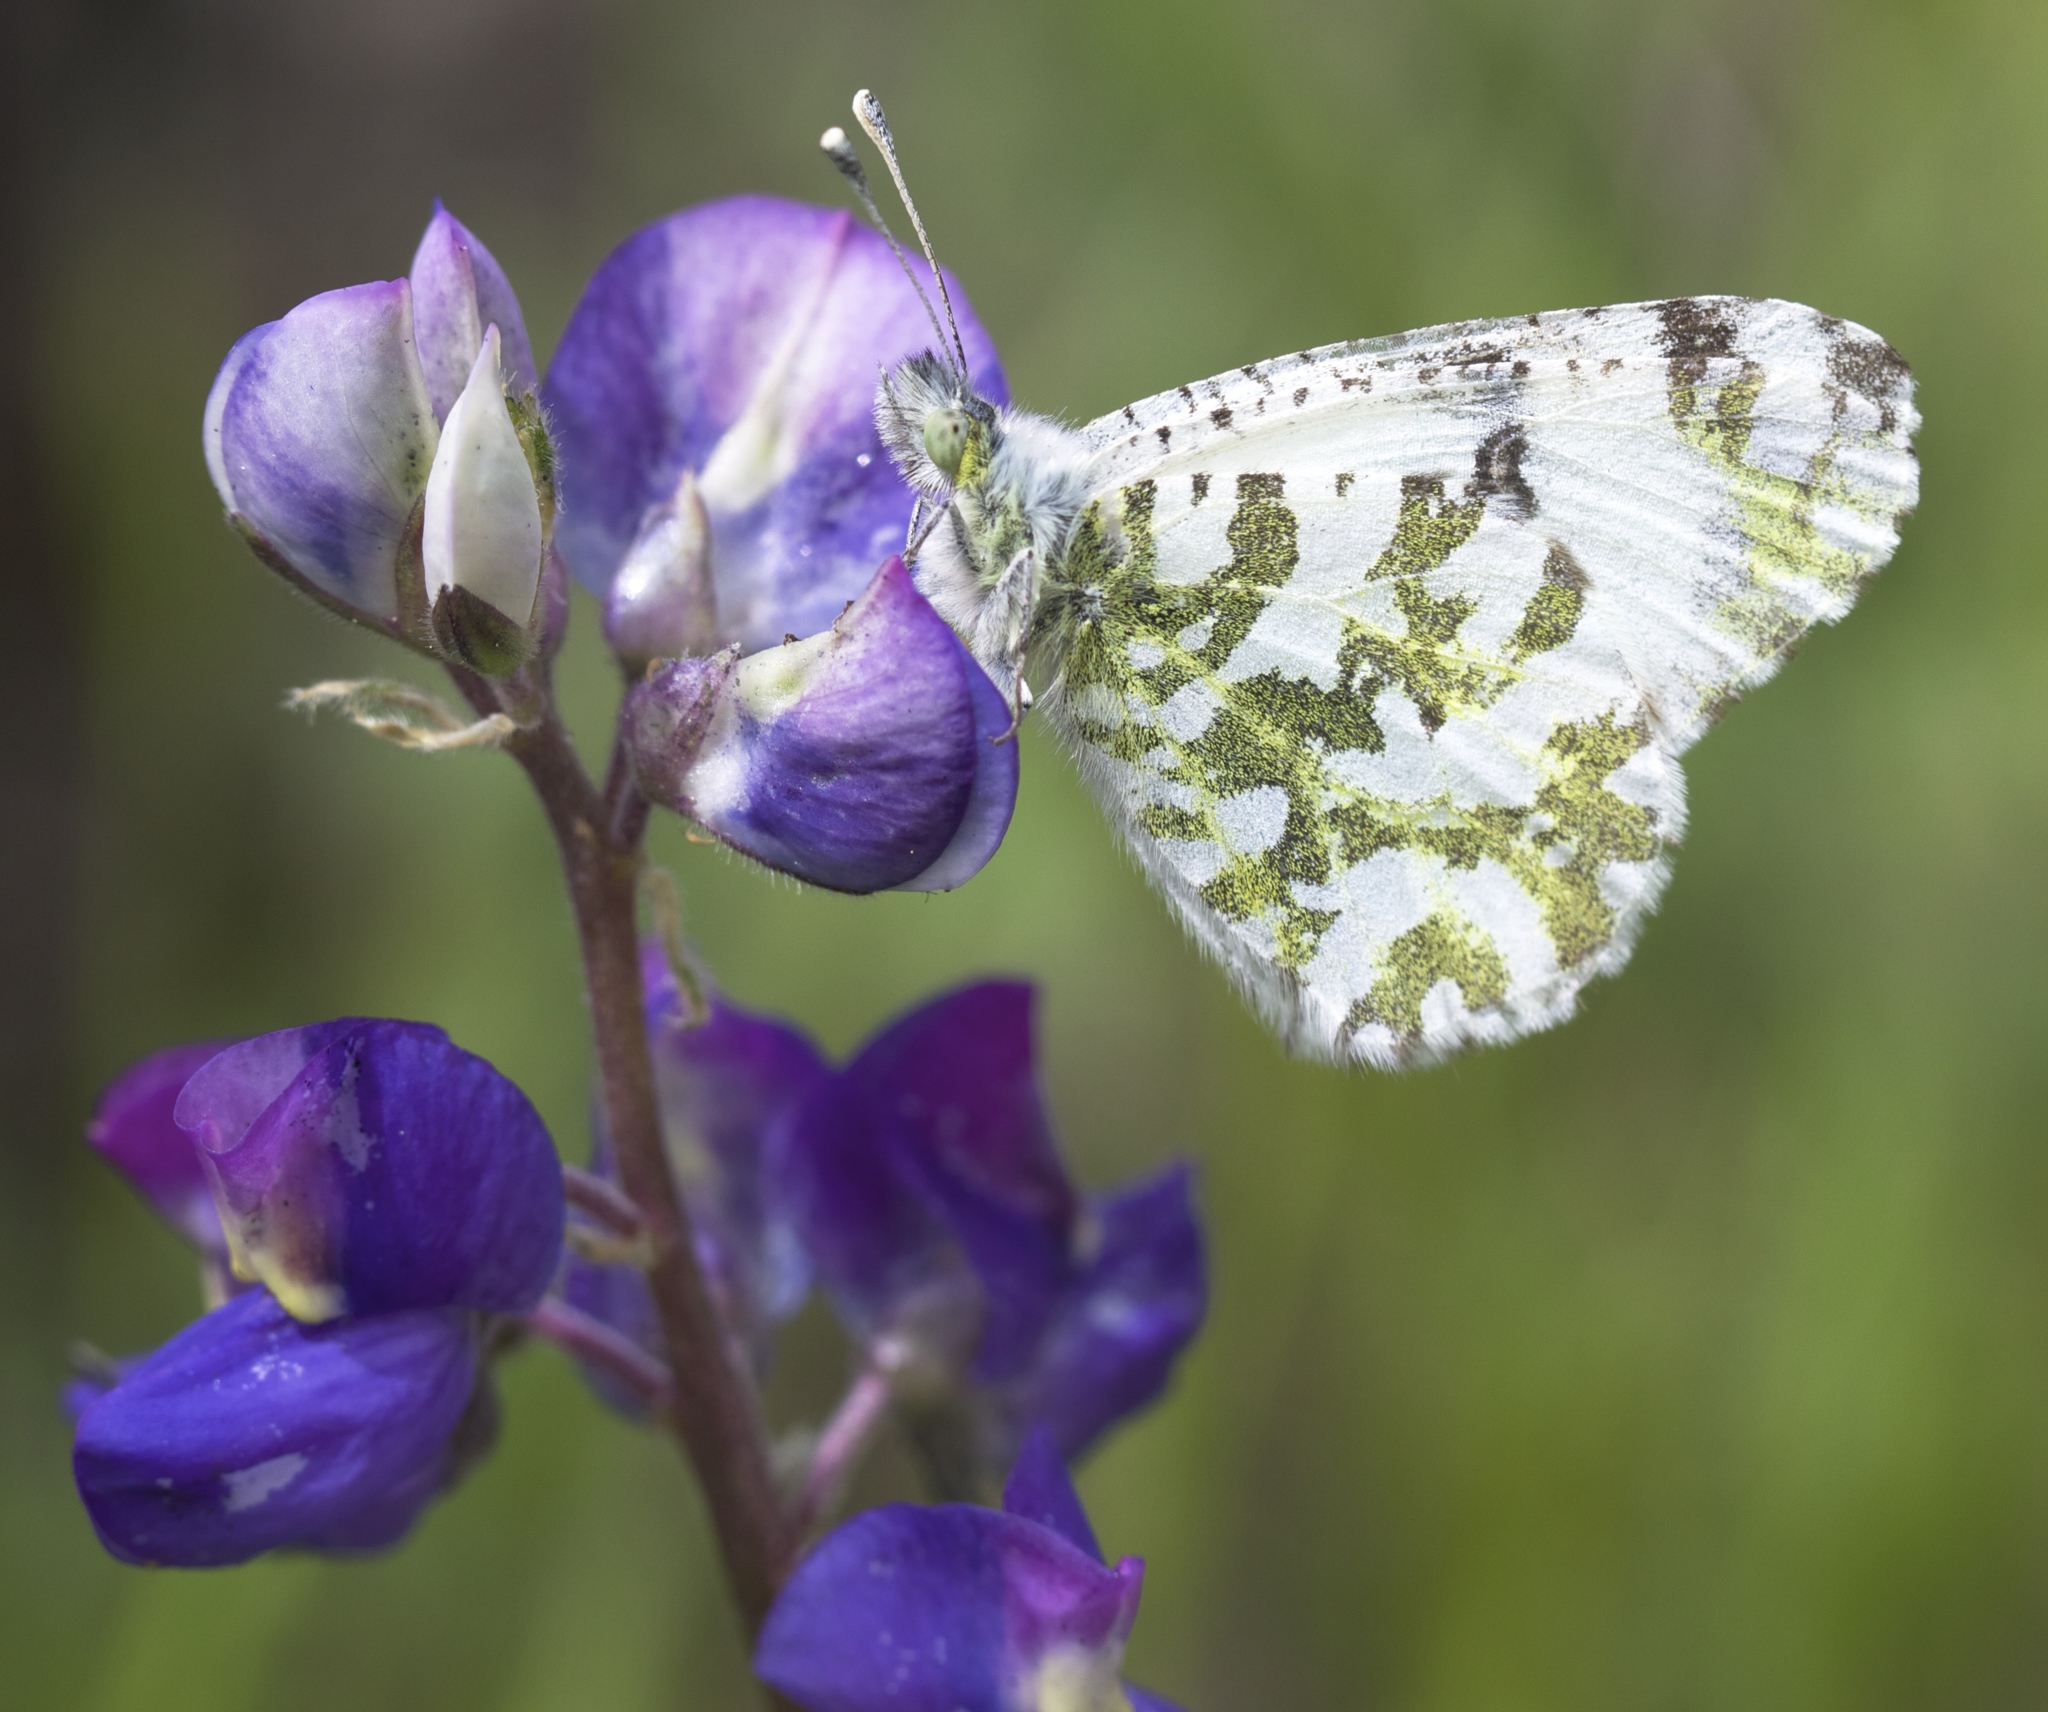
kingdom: Animalia
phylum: Arthropoda
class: Insecta
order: Lepidoptera
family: Pieridae
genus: Euchloe
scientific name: Euchloe hyantis
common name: California marble
